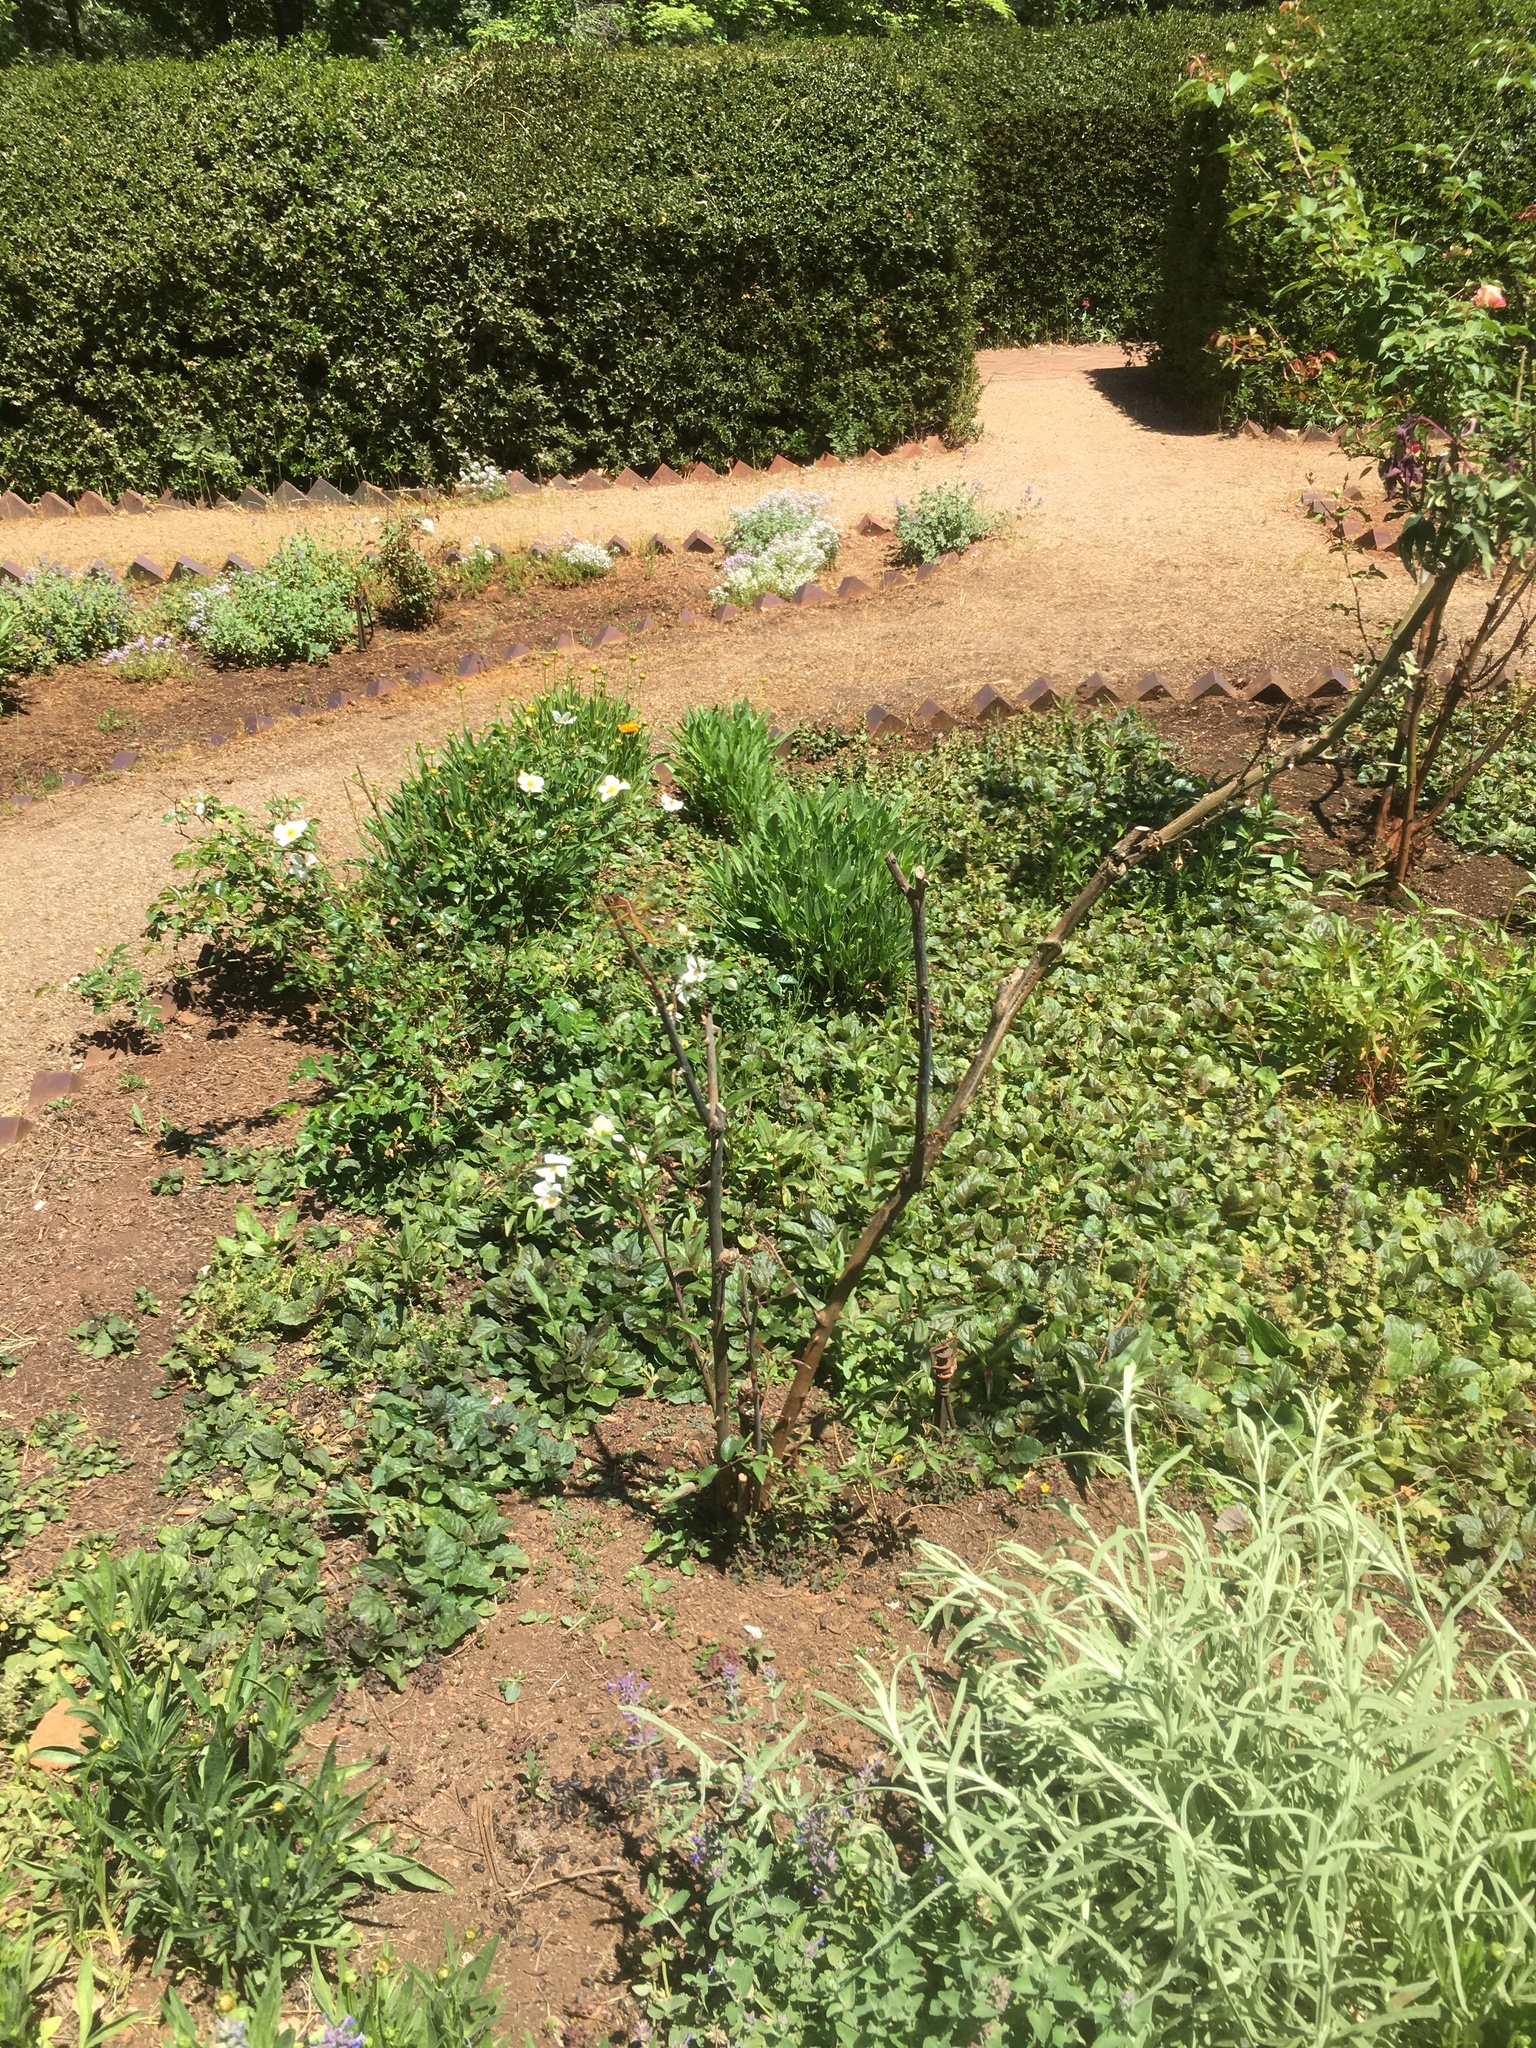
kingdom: Animalia
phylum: Arthropoda
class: Insecta
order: Odonata
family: Libellulidae
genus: Libellula
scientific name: Libellula saturata
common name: Flame skimmer
